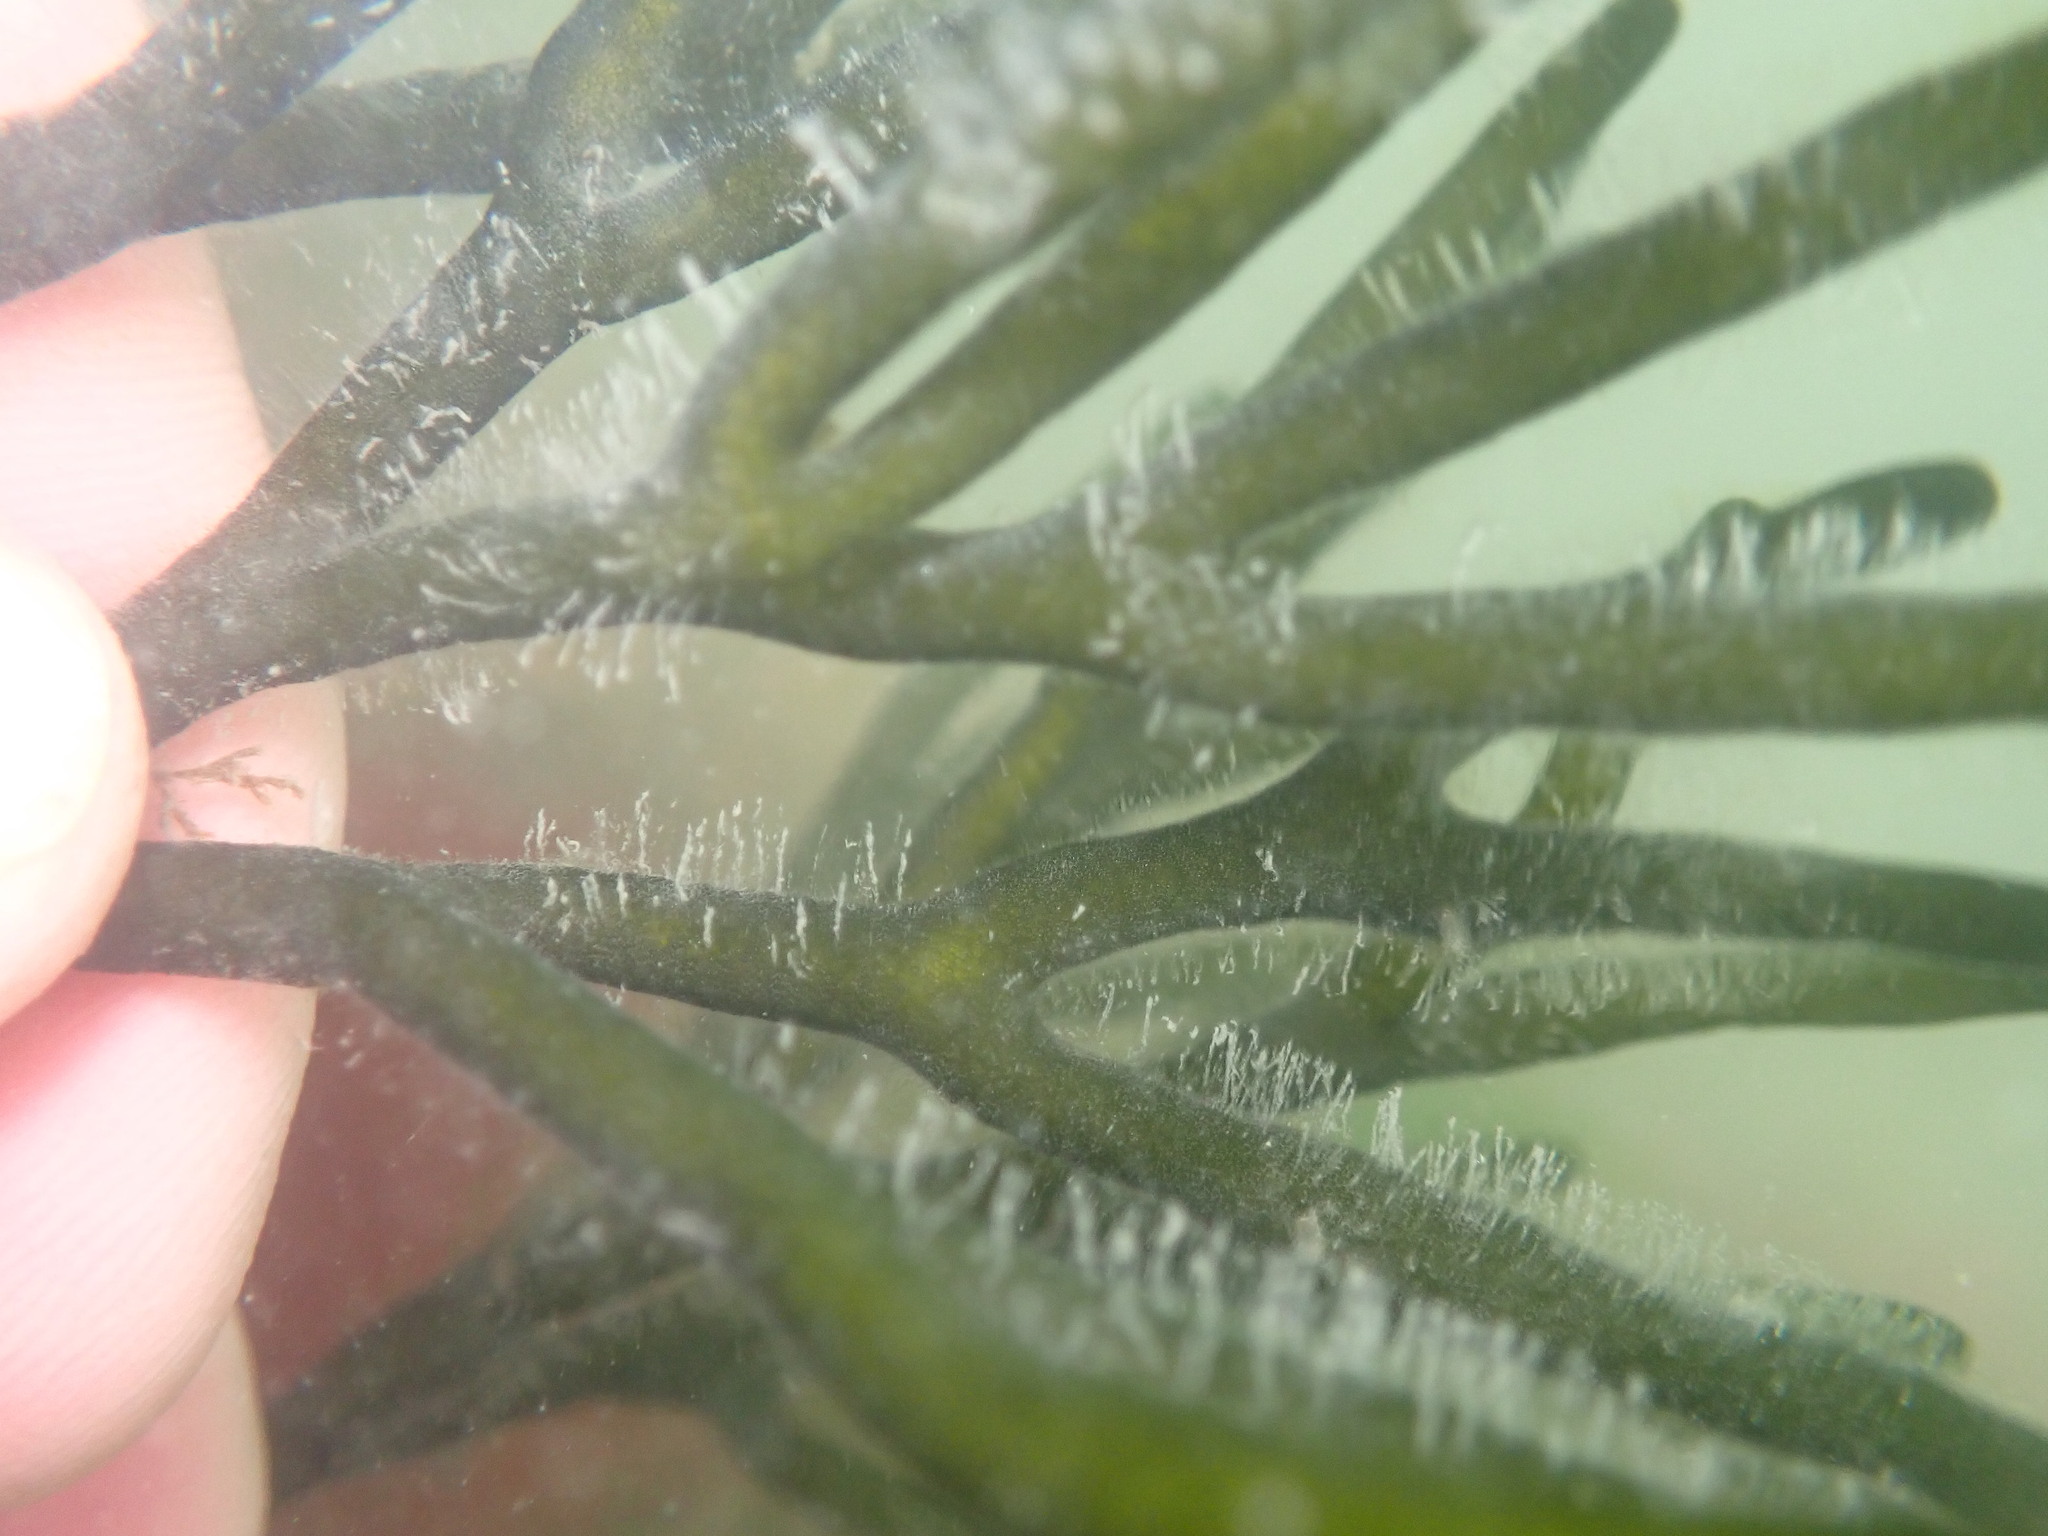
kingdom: Plantae
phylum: Chlorophyta
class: Ulvophyceae
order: Bryopsidales
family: Codiaceae
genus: Codium
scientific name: Codium fragile
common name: Dead man's fingers
